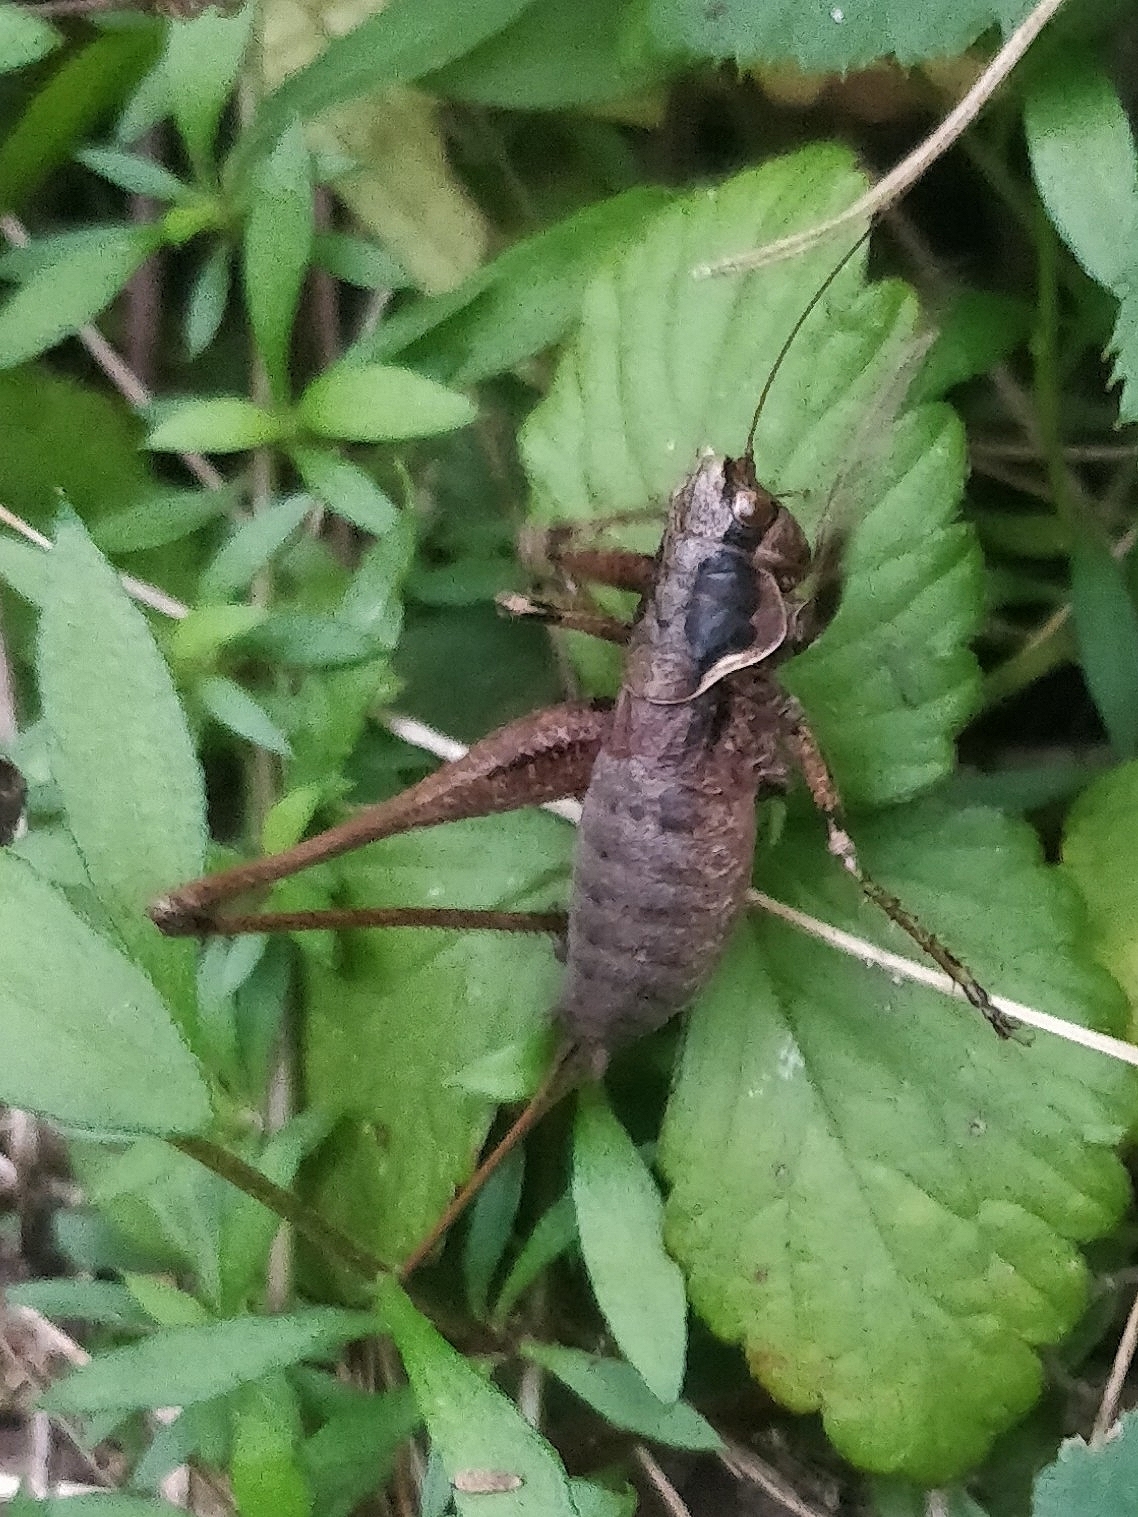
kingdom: Animalia
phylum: Arthropoda
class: Insecta
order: Orthoptera
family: Tettigoniidae
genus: Antaxius
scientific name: Antaxius spinibrachius
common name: Spiny-legged bush-cricket
